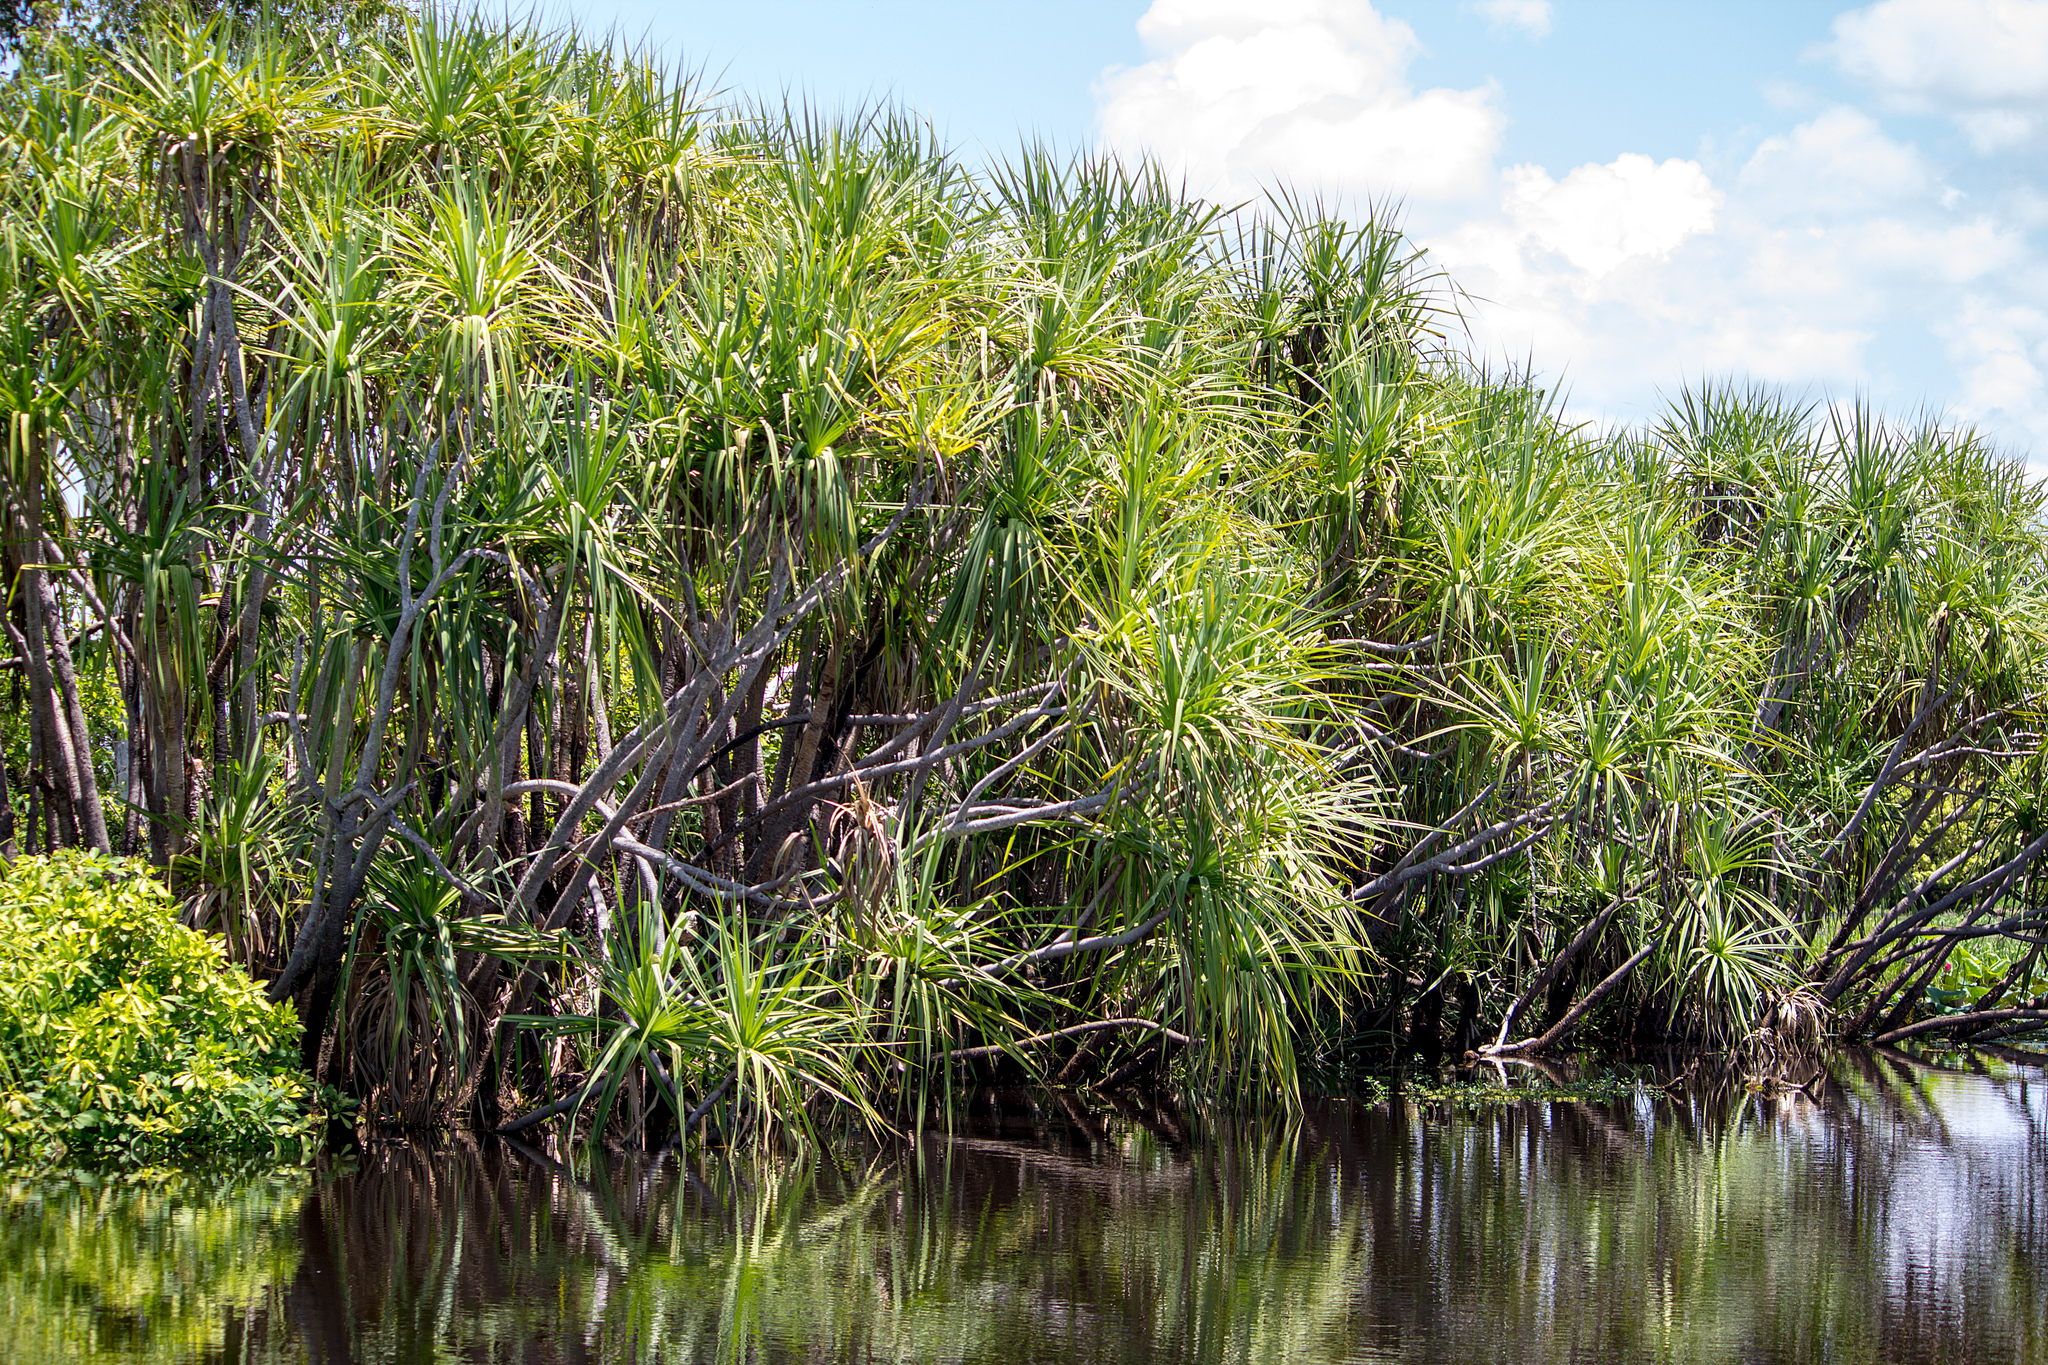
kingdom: Plantae
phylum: Tracheophyta
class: Liliopsida
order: Pandanales
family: Pandanaceae
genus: Pandanus
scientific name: Pandanus aquaticus
